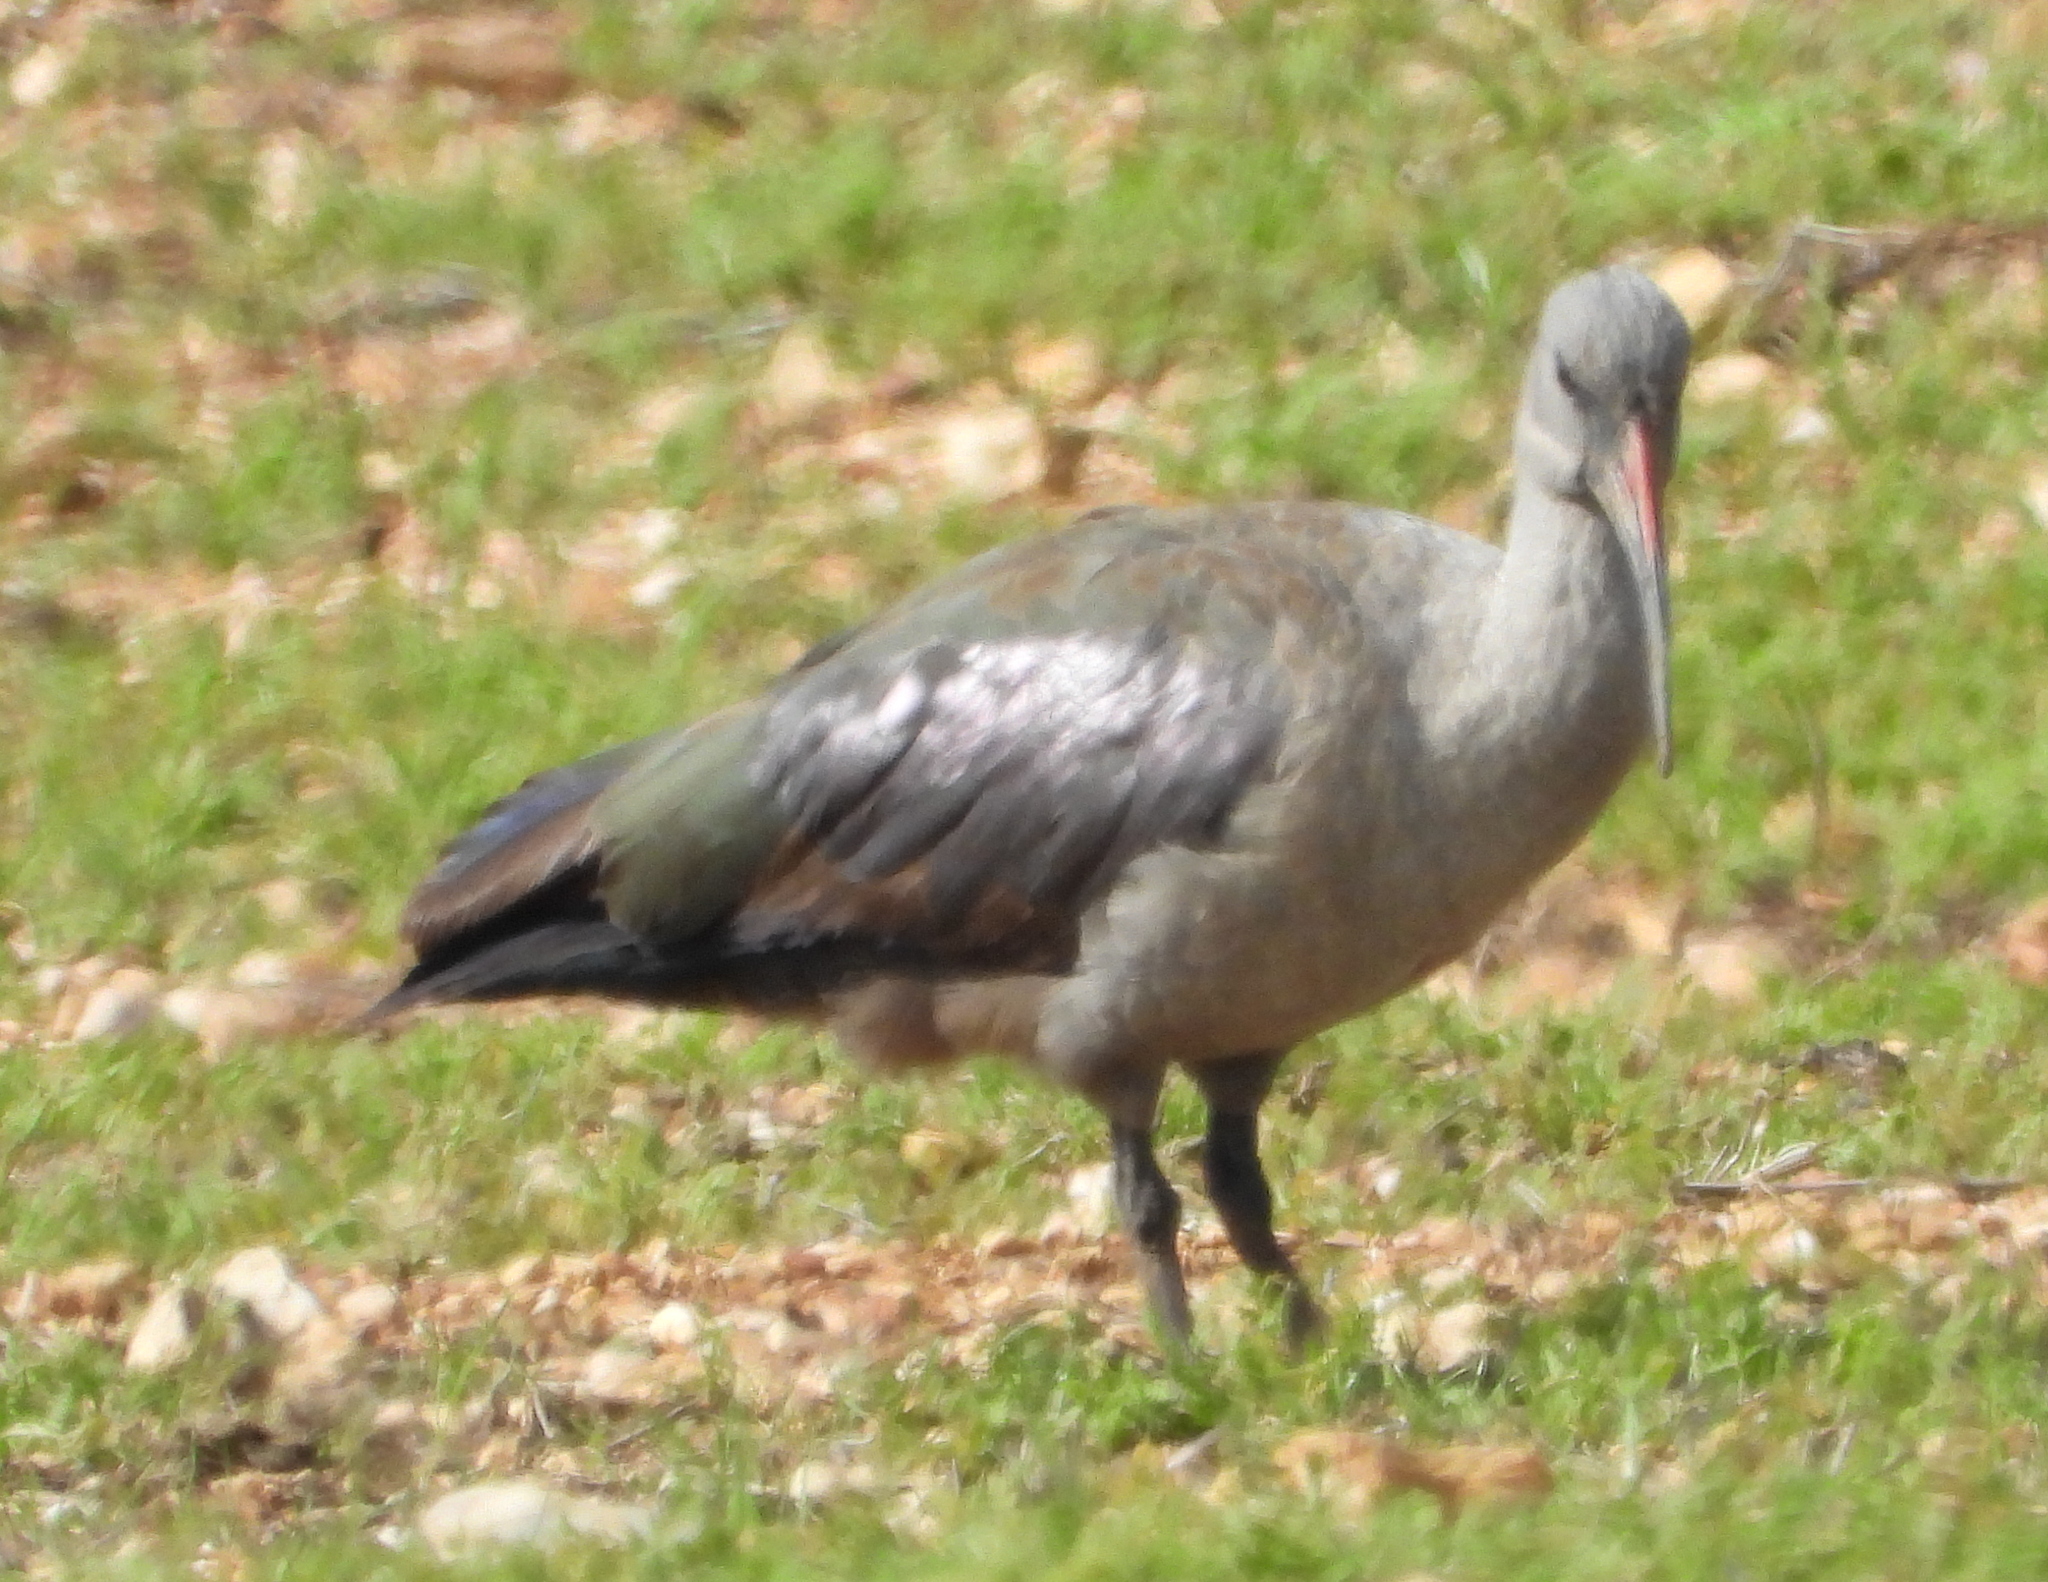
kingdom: Animalia
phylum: Chordata
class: Aves
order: Pelecaniformes
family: Threskiornithidae
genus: Bostrychia
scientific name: Bostrychia hagedash
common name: Hadada ibis
